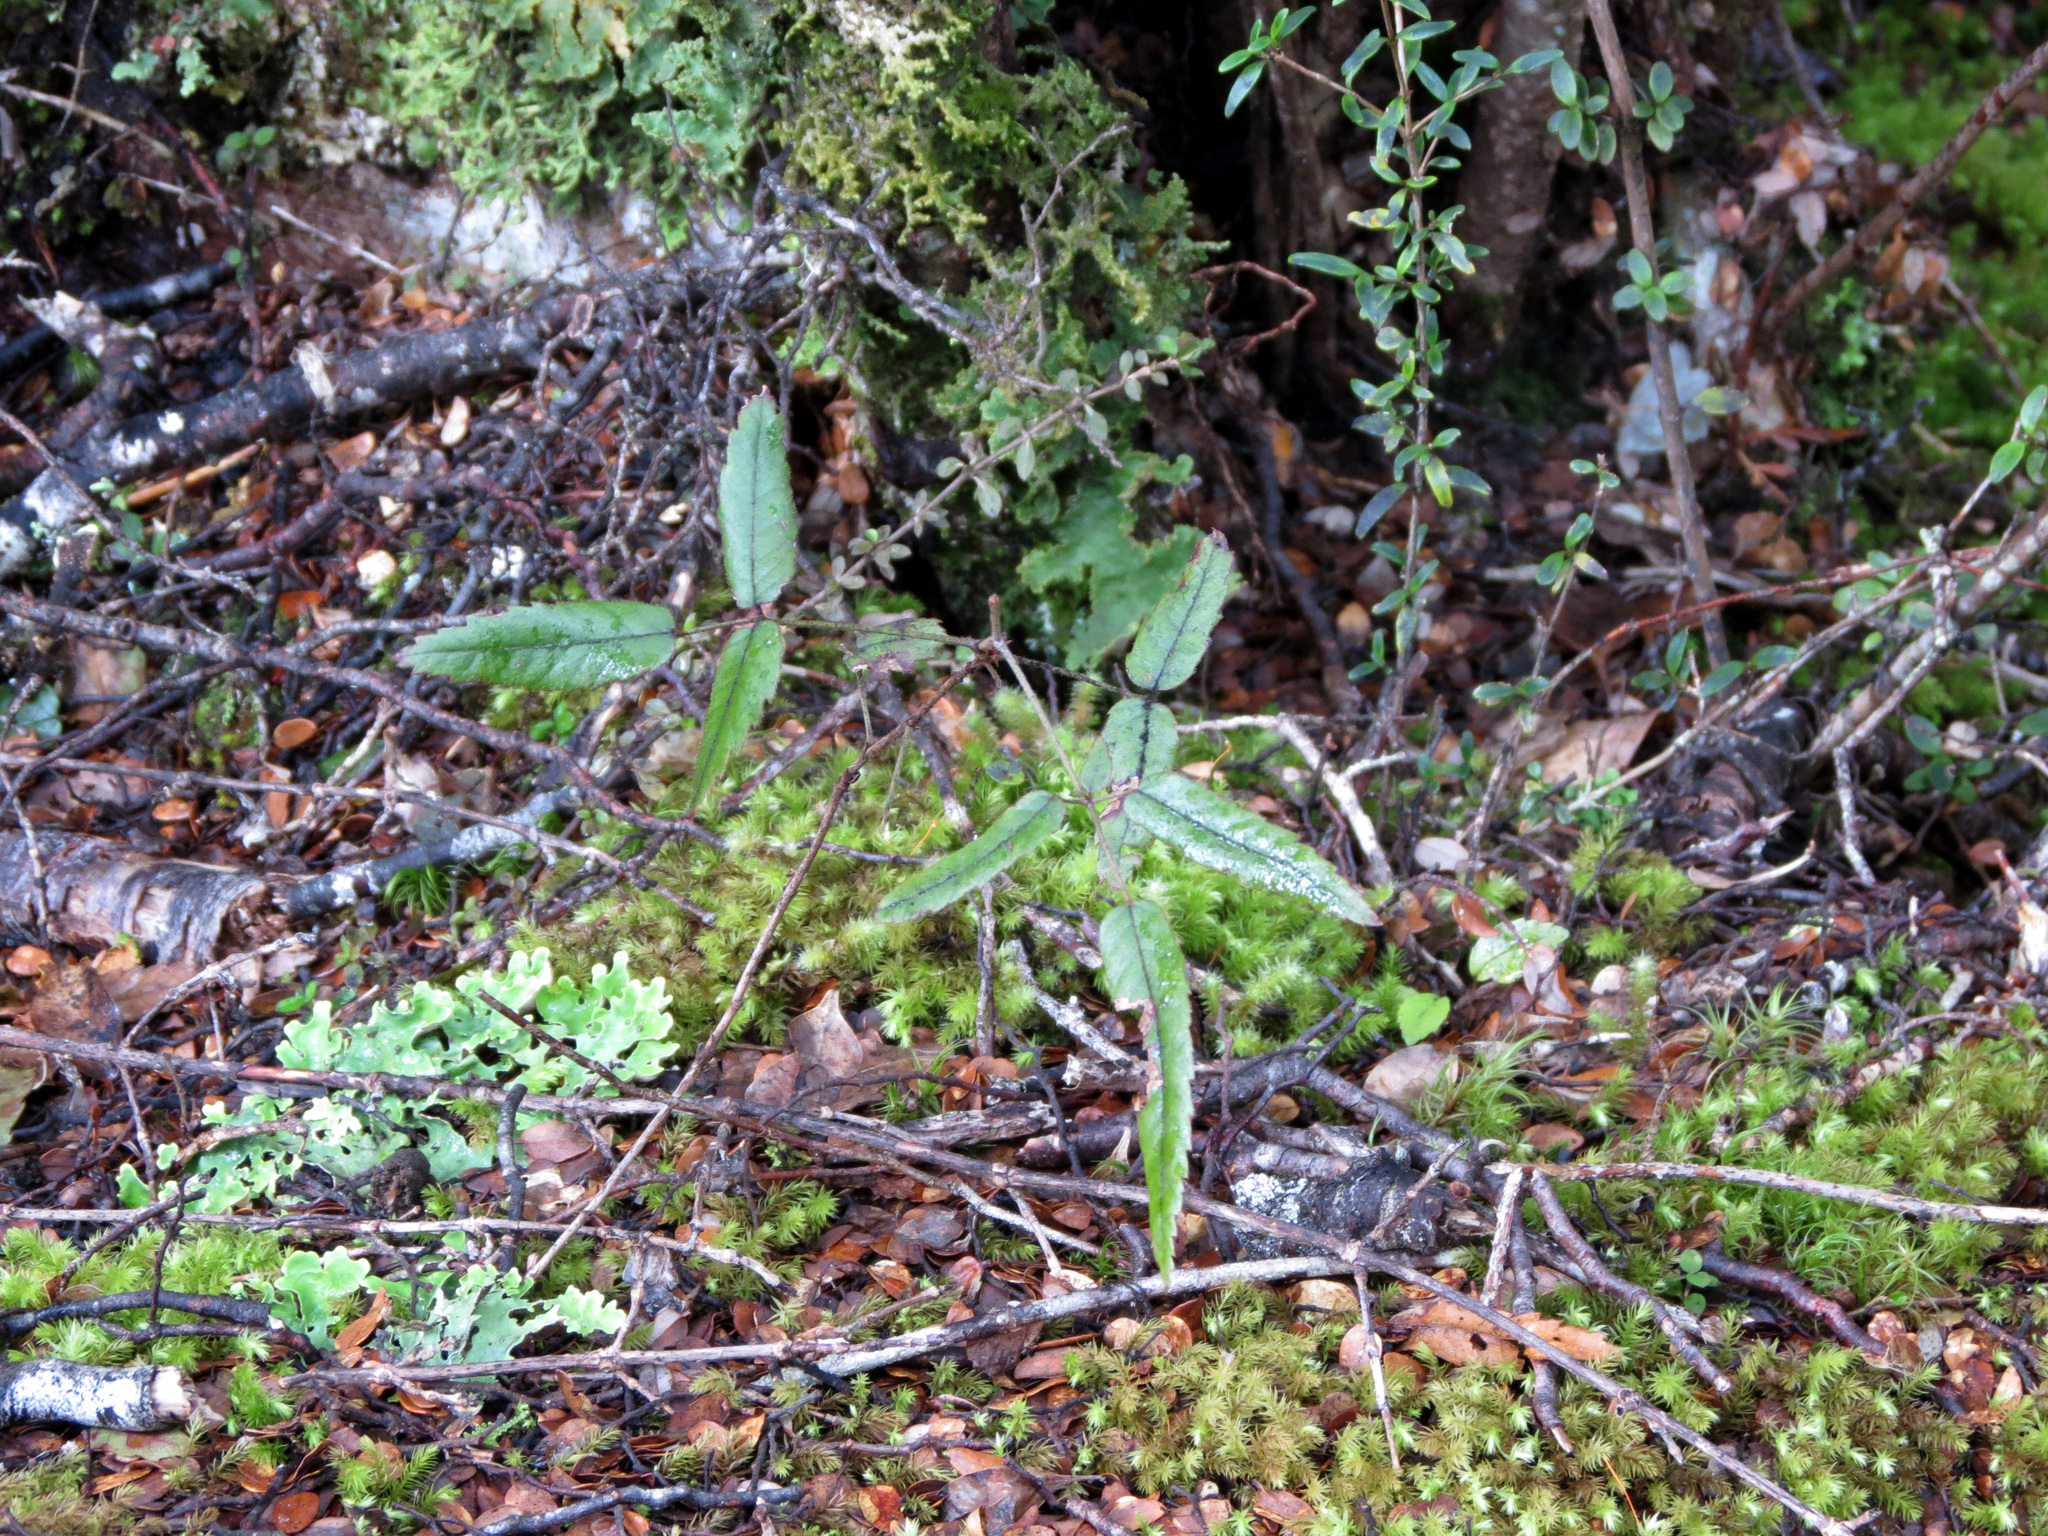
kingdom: Plantae
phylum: Tracheophyta
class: Magnoliopsida
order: Rosales
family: Rosaceae
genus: Rubus
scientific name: Rubus schmidelioides
